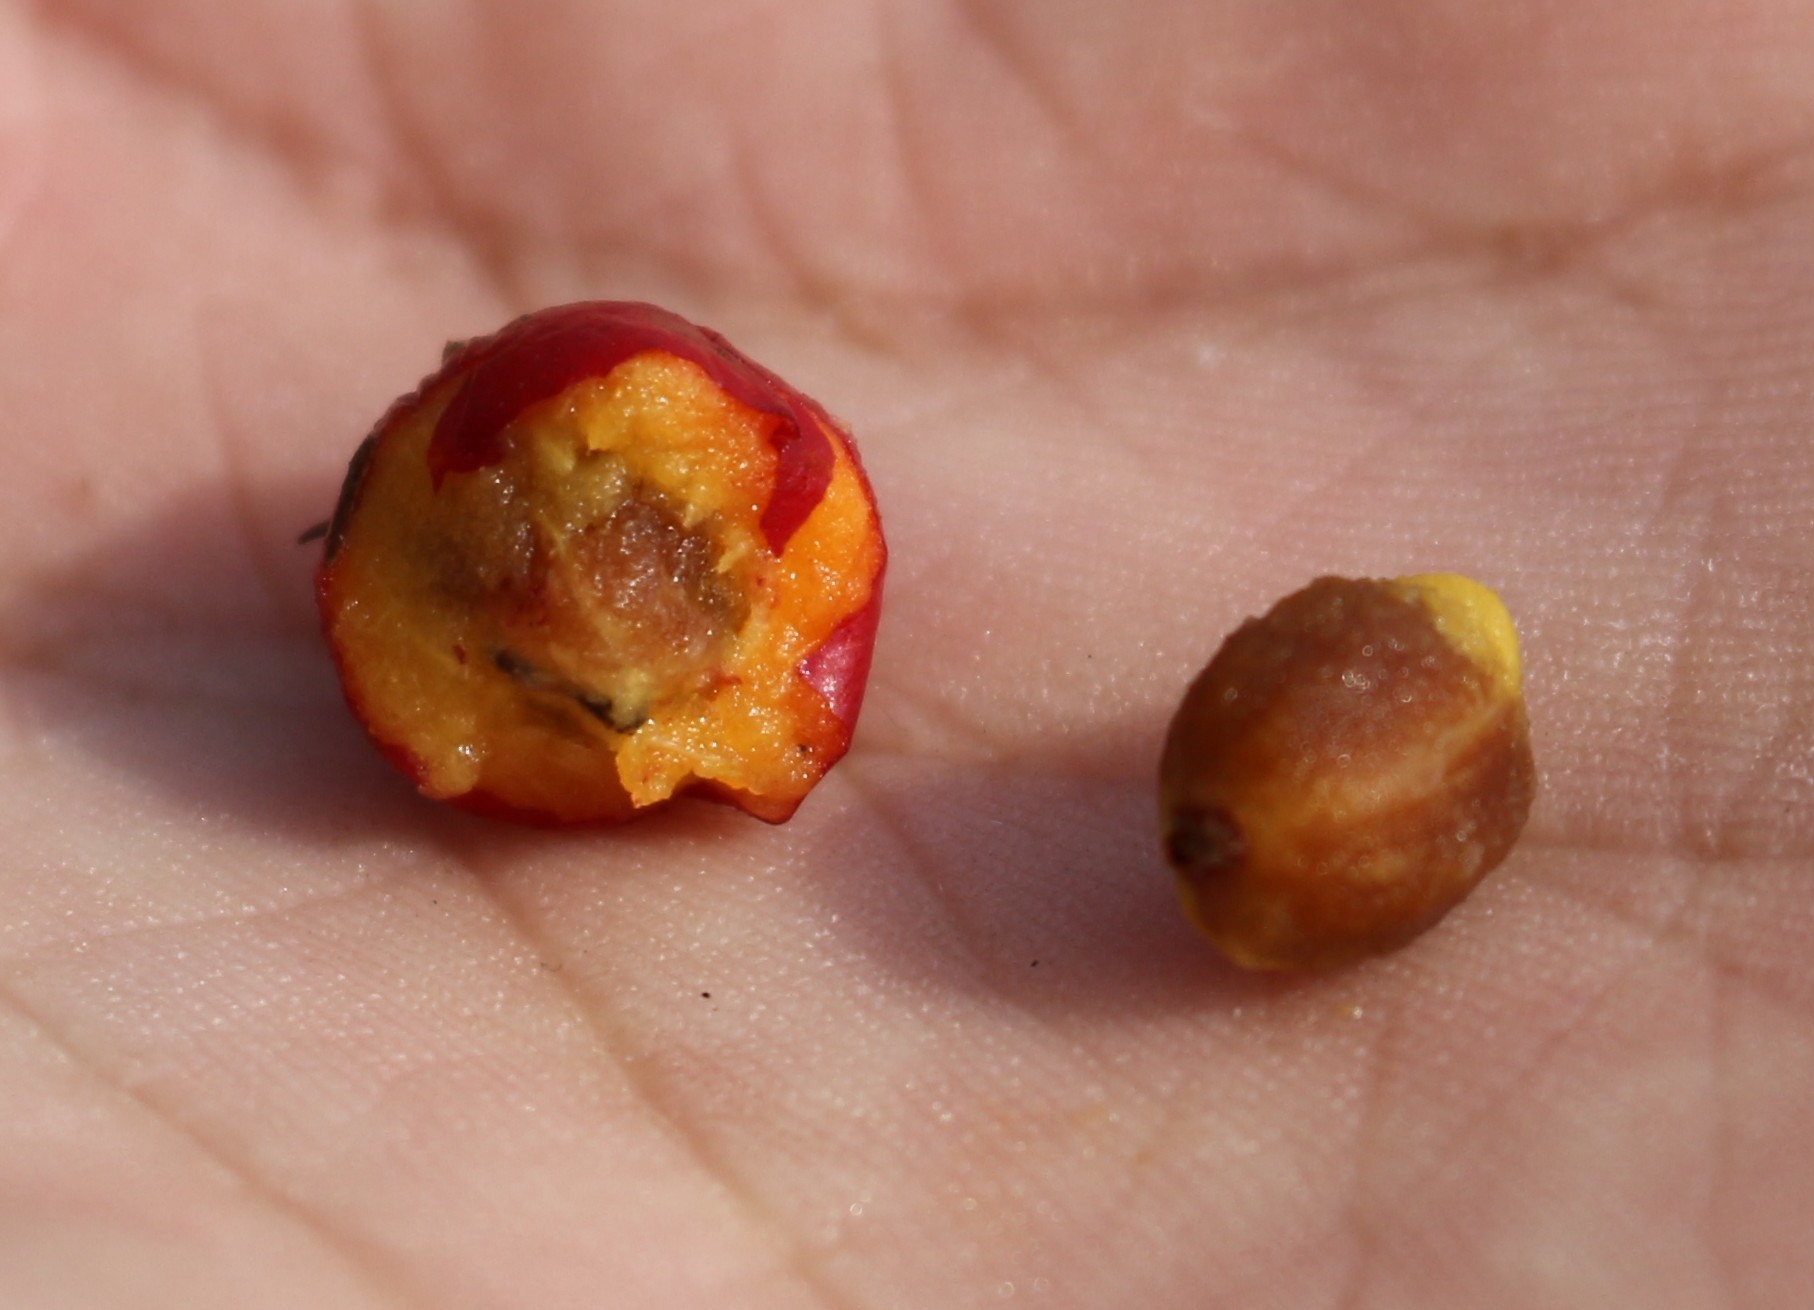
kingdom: Plantae
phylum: Tracheophyta
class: Magnoliopsida
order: Rosales
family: Rosaceae
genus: Crataegus
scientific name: Crataegus monogyna
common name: Hawthorn
